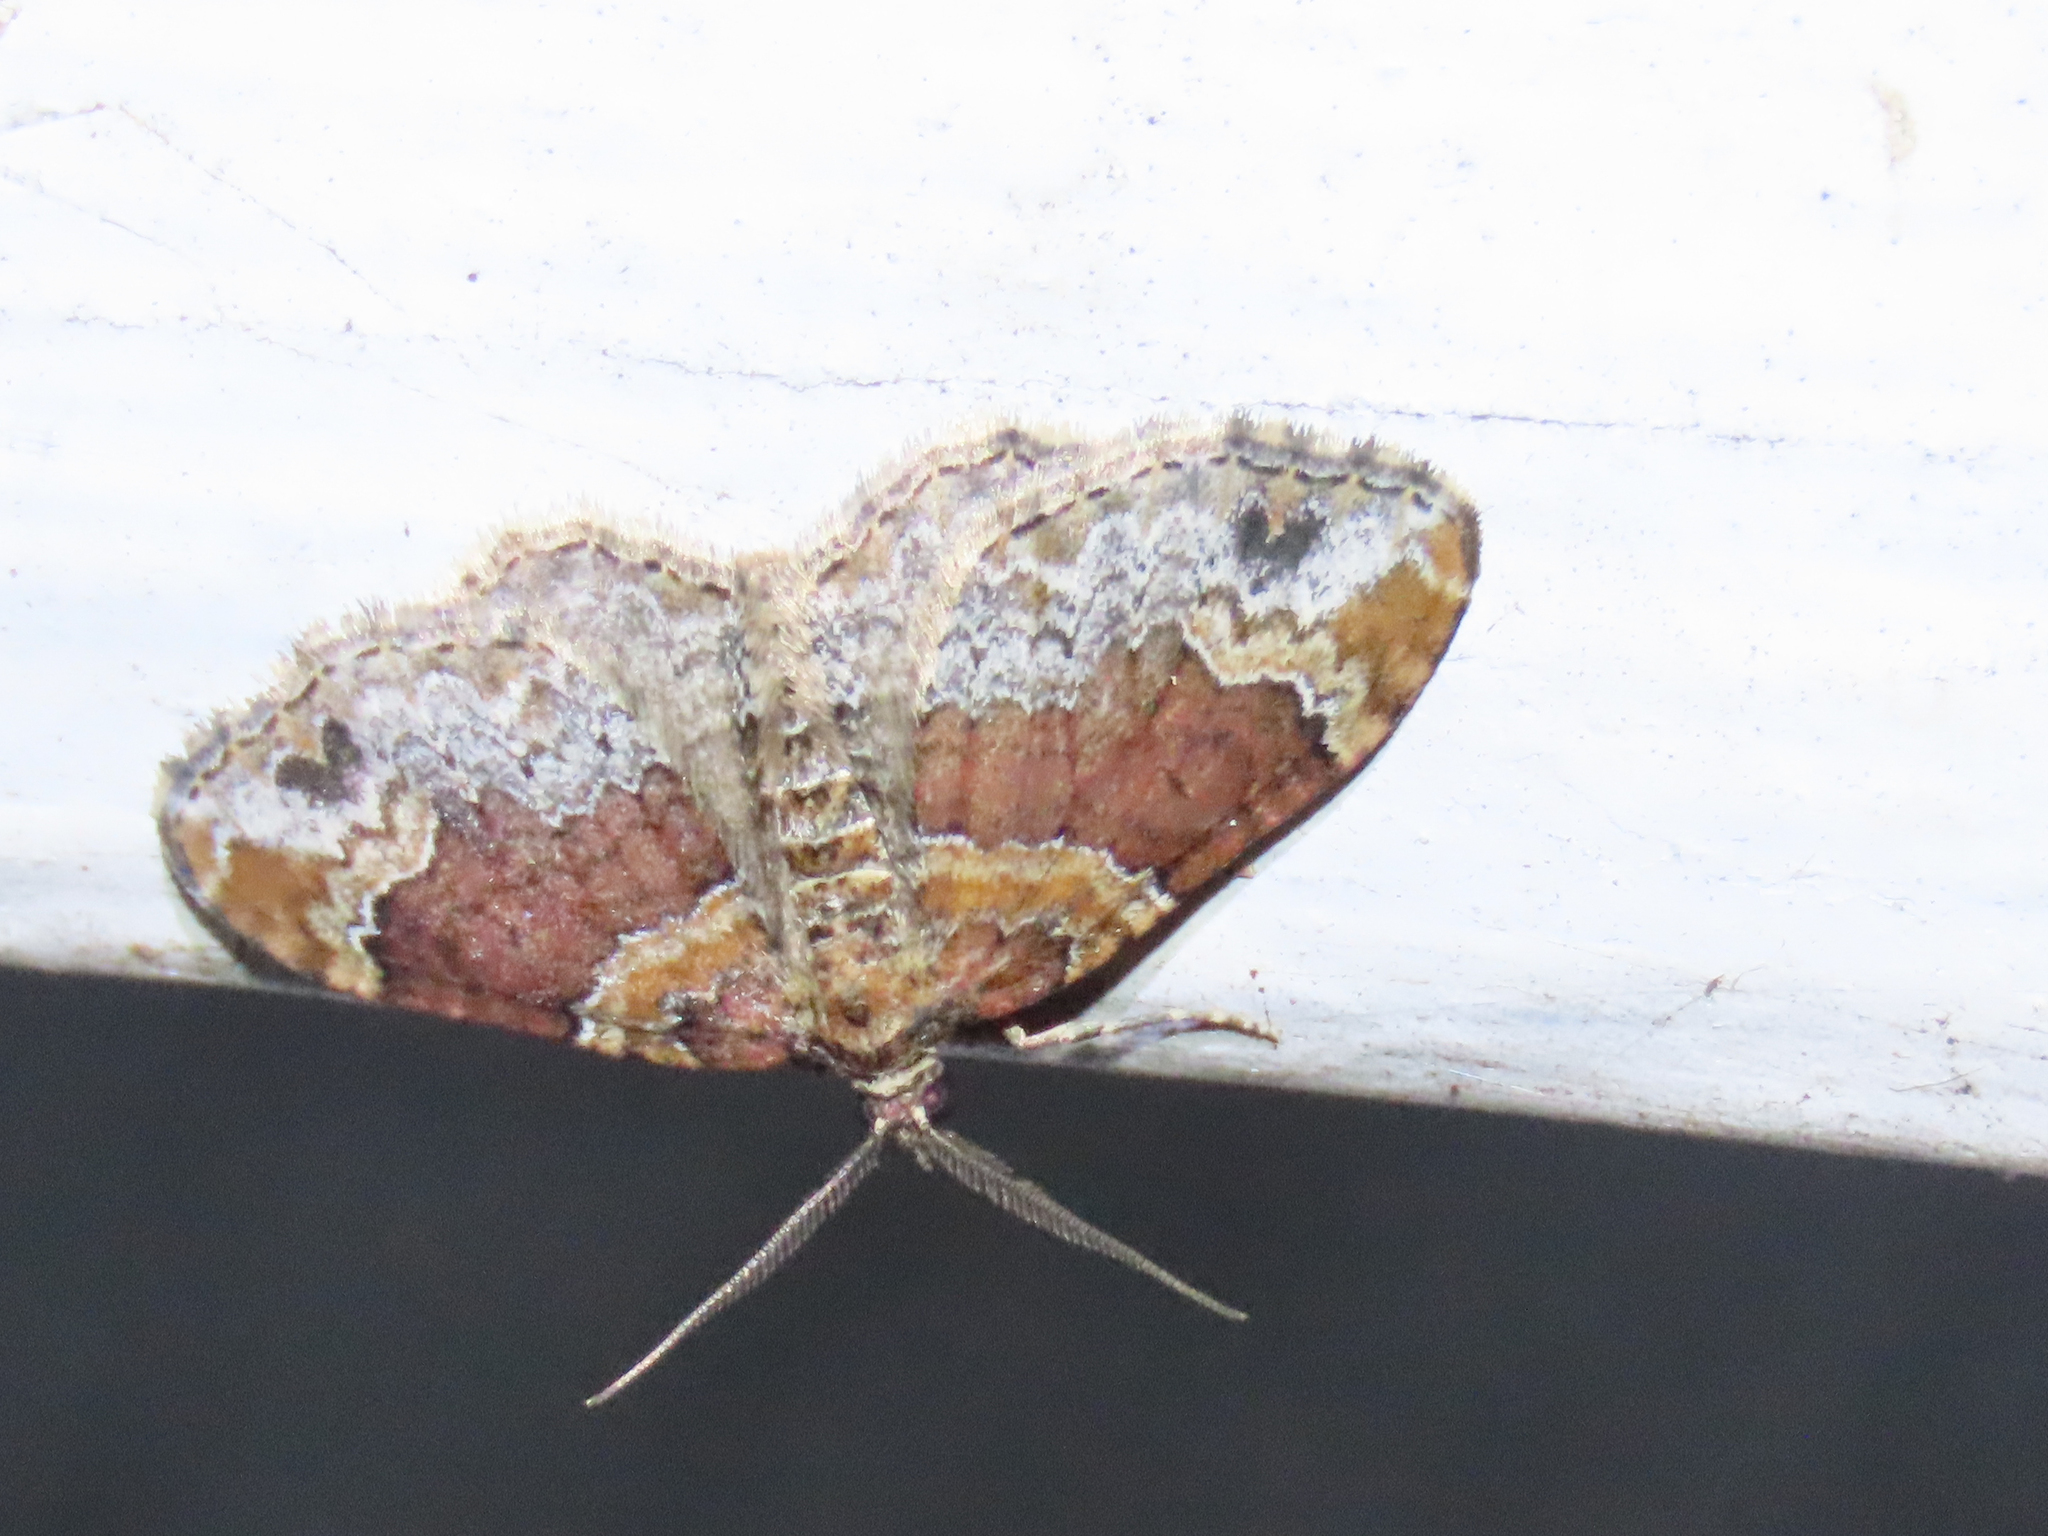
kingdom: Animalia
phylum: Arthropoda
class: Insecta
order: Lepidoptera
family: Geometridae
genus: Xanthorhoe
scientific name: Xanthorhoe ferrugata
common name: Dark-barred twin-spot carpet
